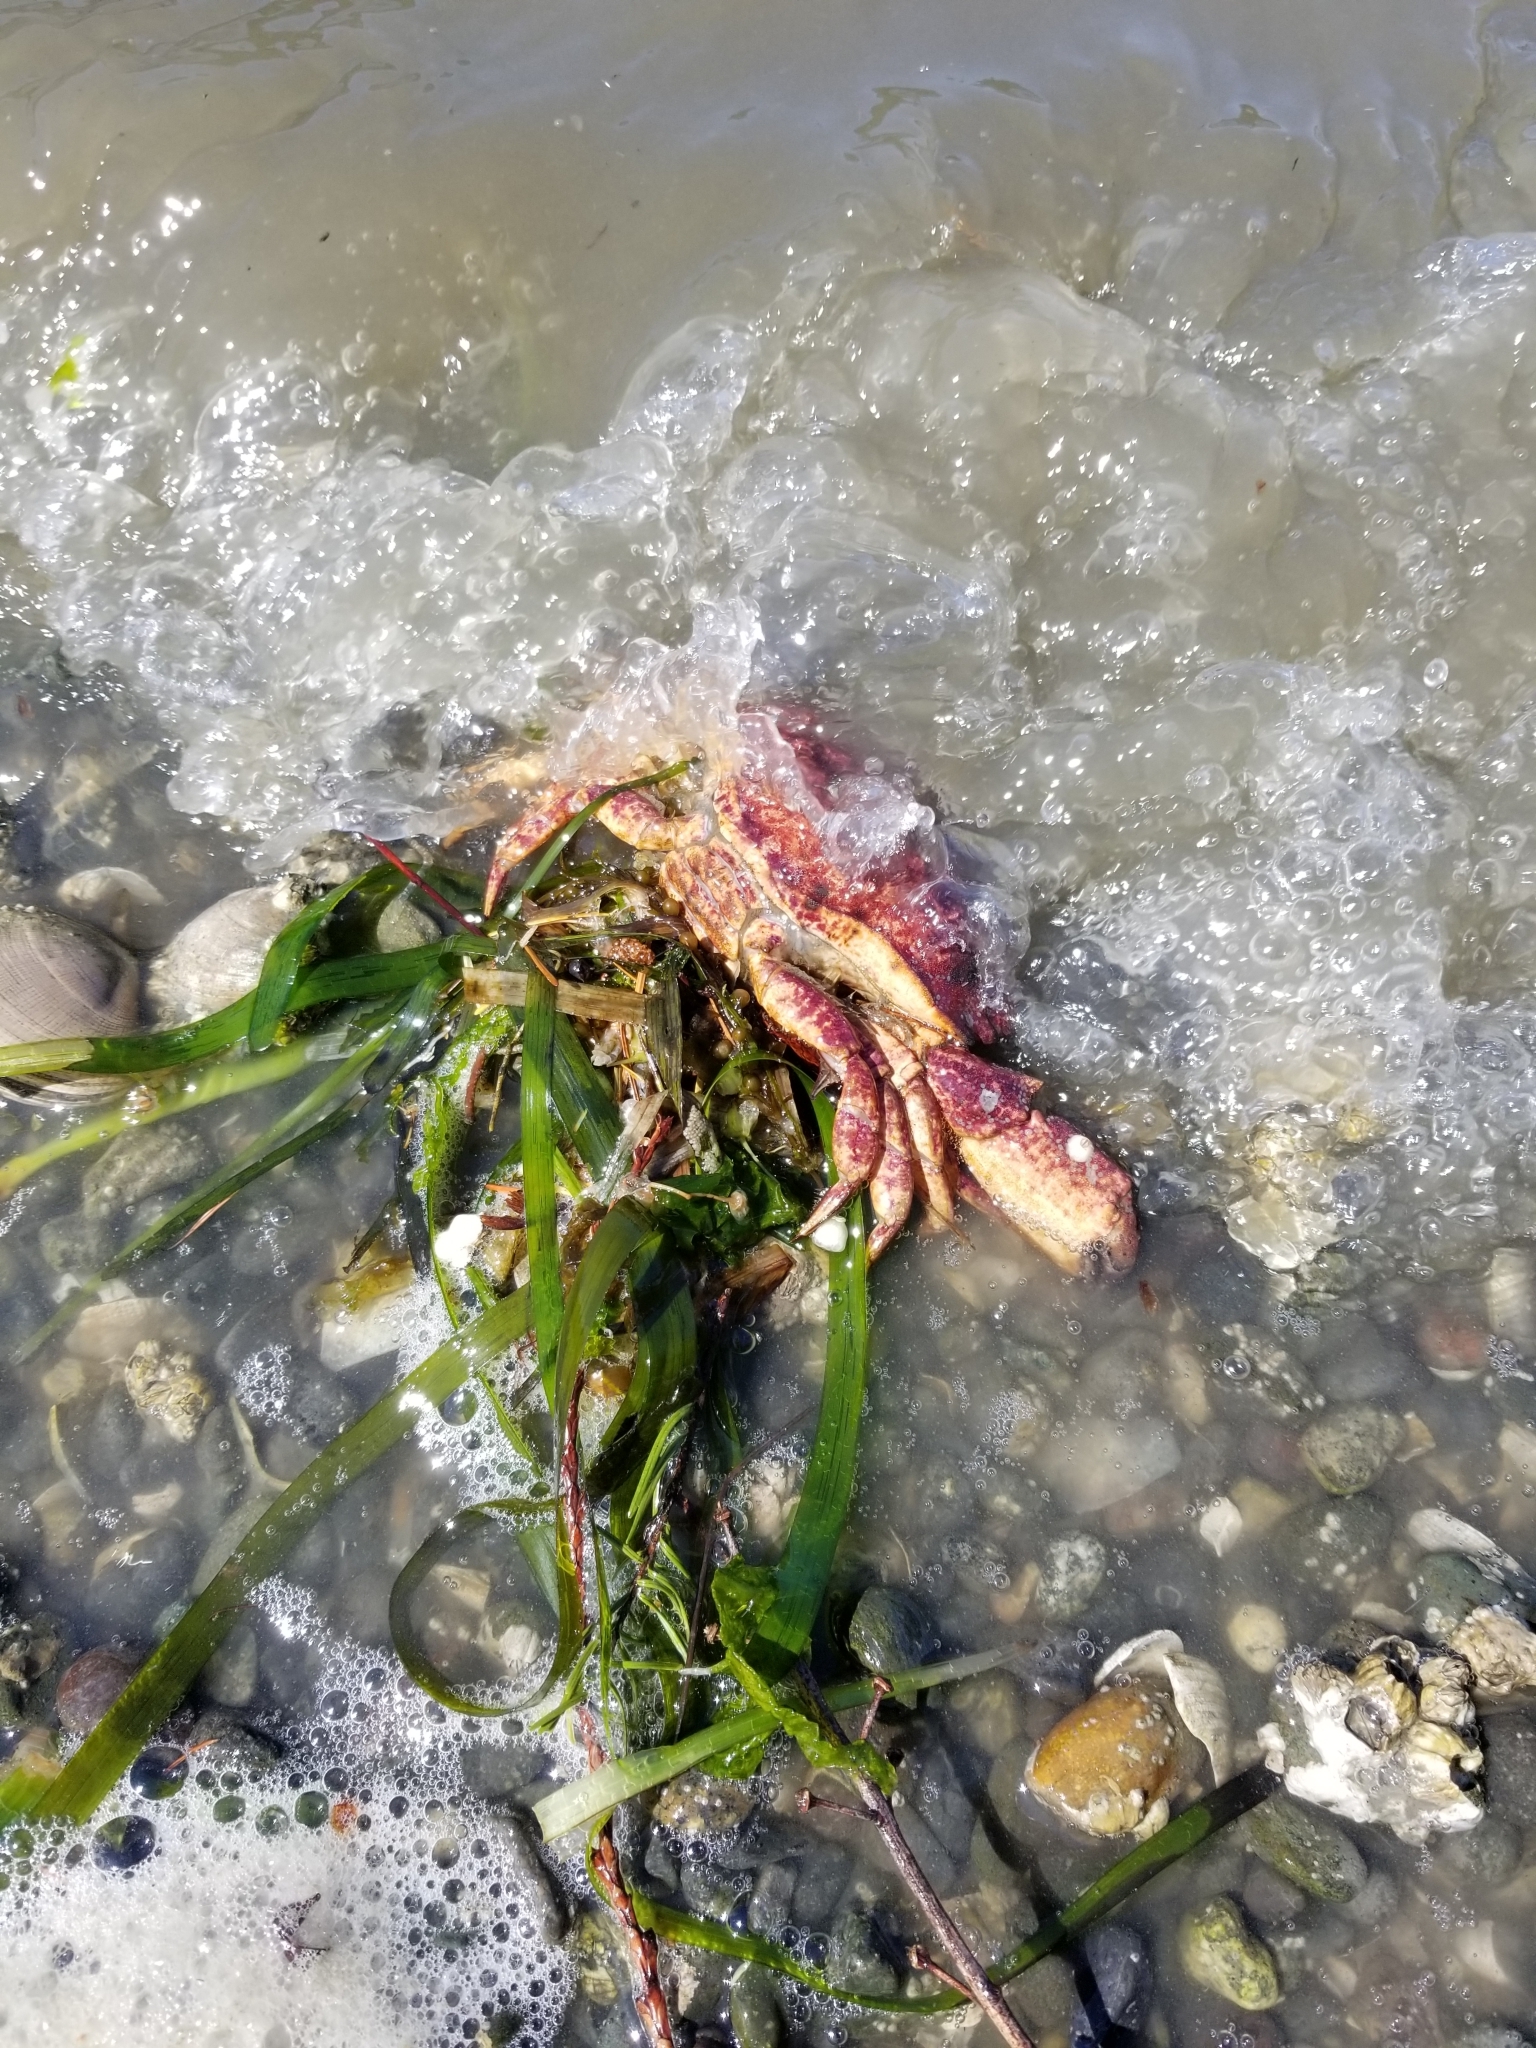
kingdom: Animalia
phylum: Arthropoda
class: Malacostraca
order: Decapoda
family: Cancridae
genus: Cancer
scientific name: Cancer productus
